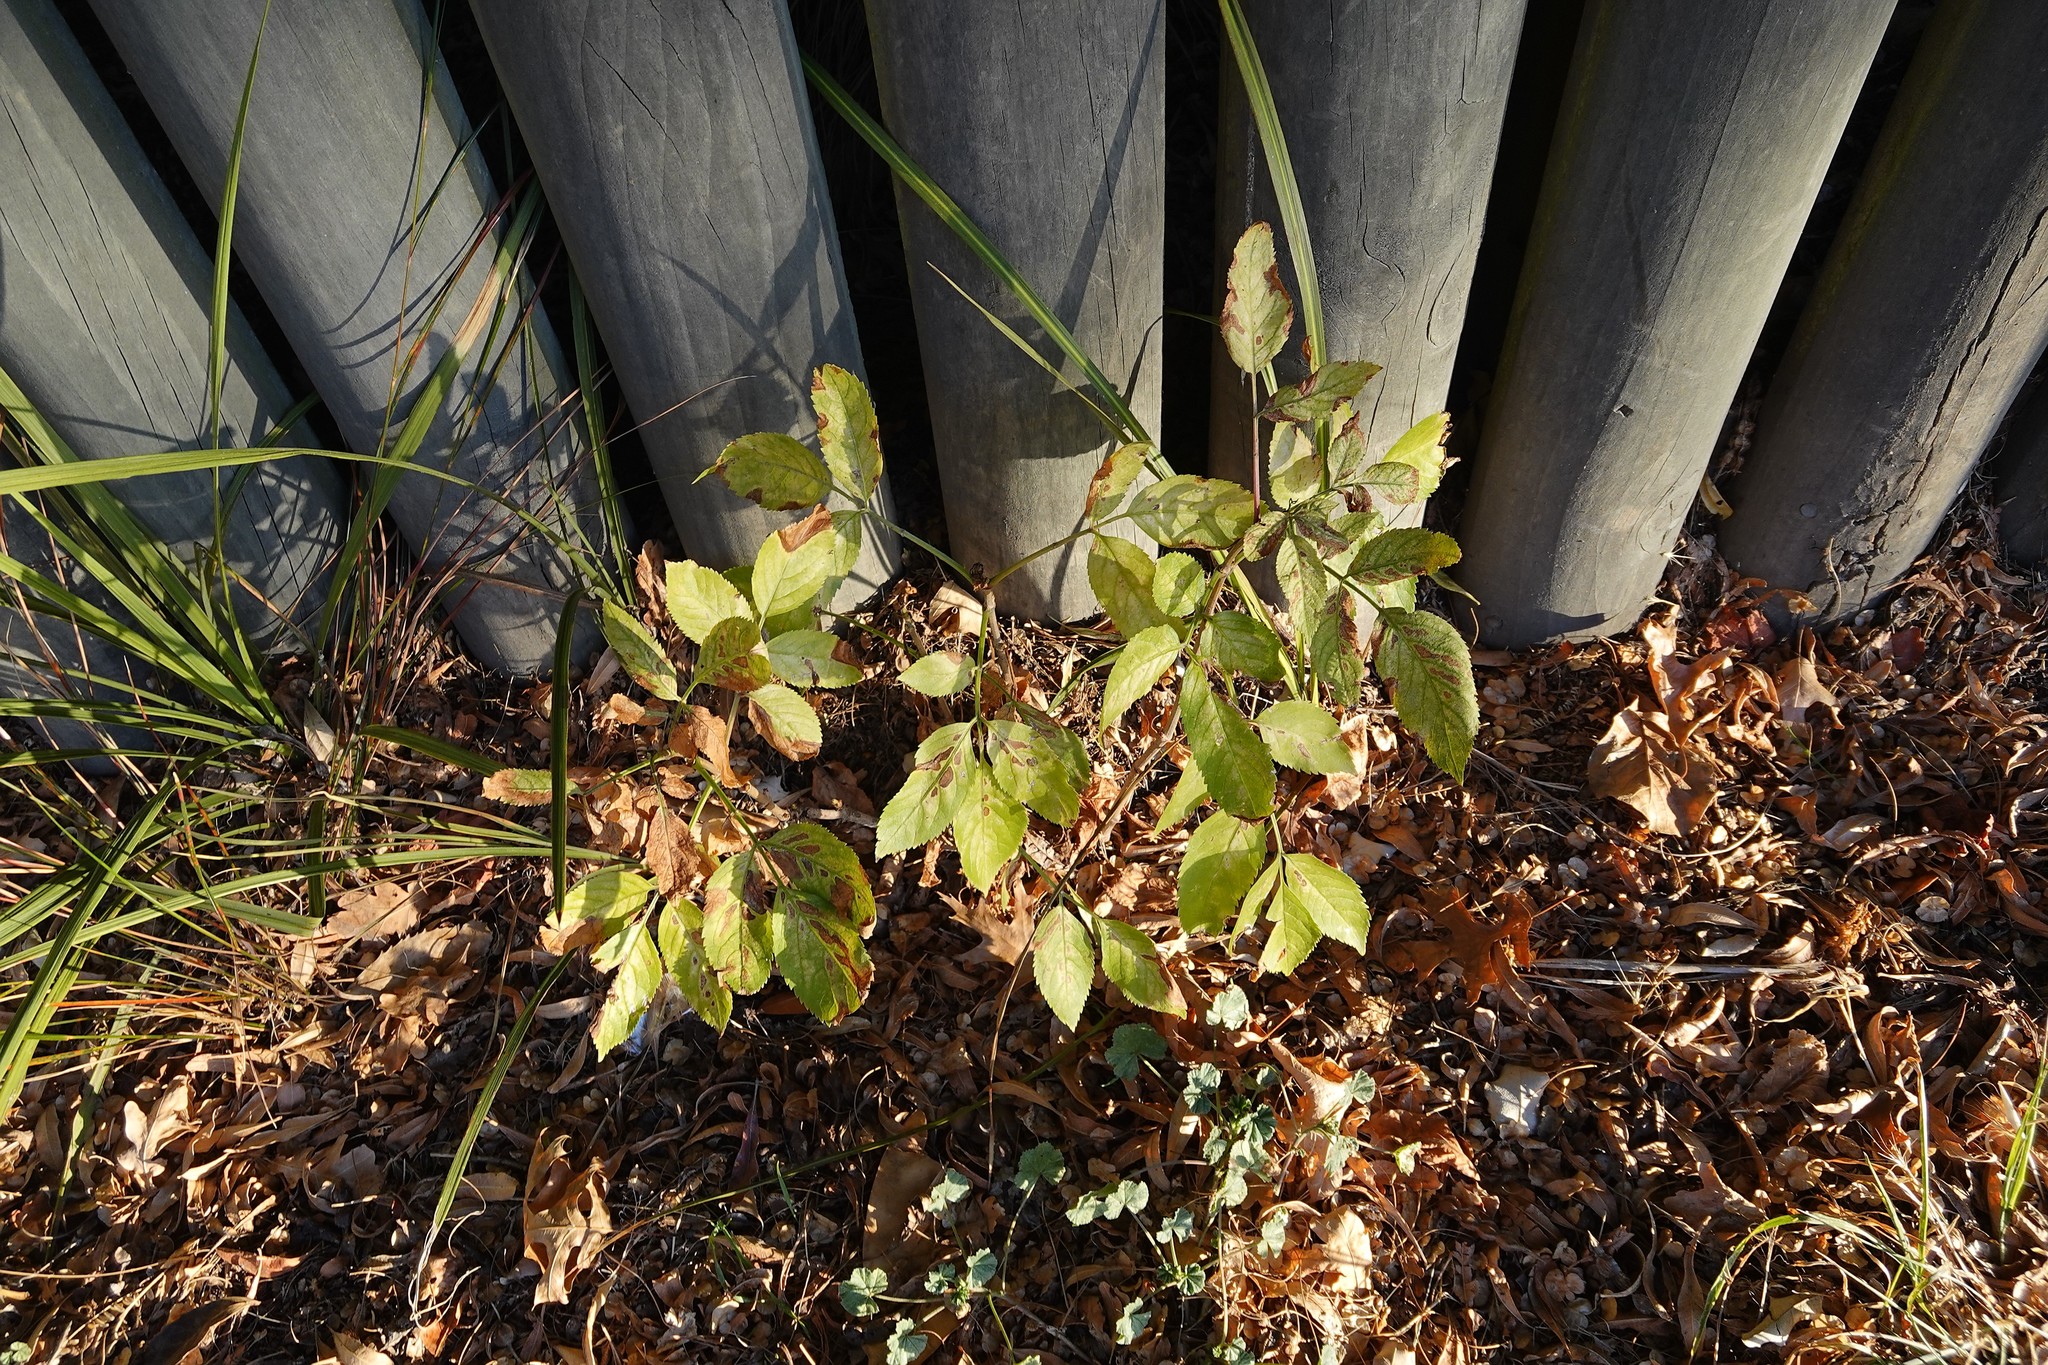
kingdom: Plantae
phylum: Tracheophyta
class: Magnoliopsida
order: Dipsacales
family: Viburnaceae
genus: Sambucus
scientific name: Sambucus nigra
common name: Elder
